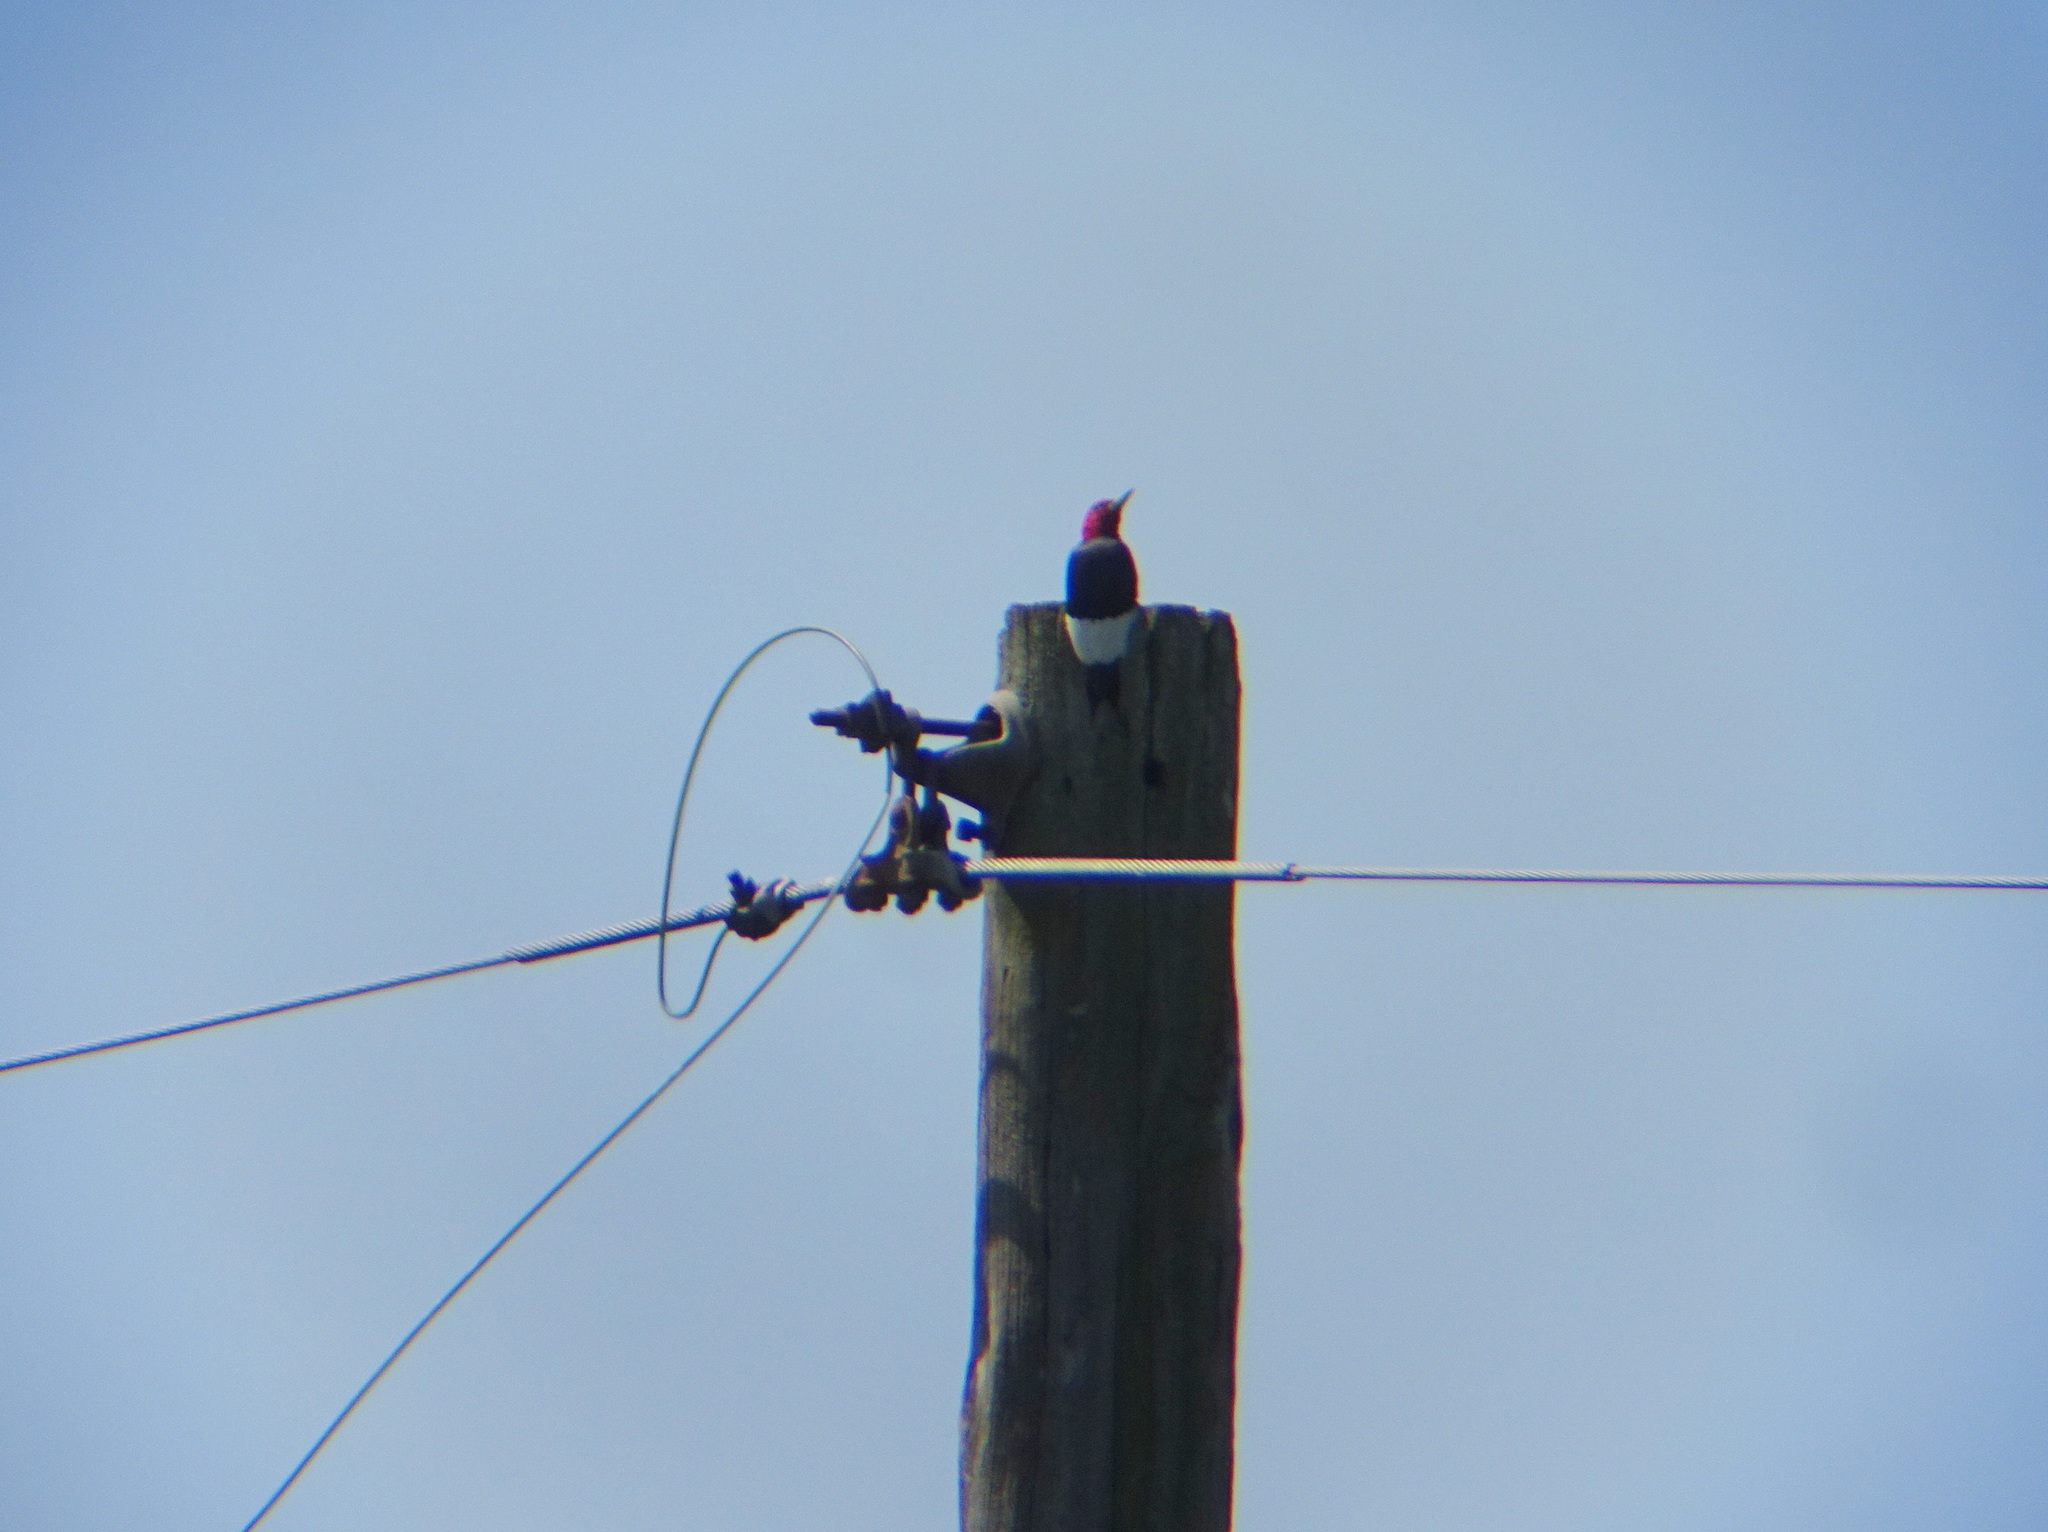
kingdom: Animalia
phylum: Chordata
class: Aves
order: Piciformes
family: Picidae
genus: Melanerpes
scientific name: Melanerpes erythrocephalus
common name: Red-headed woodpecker
